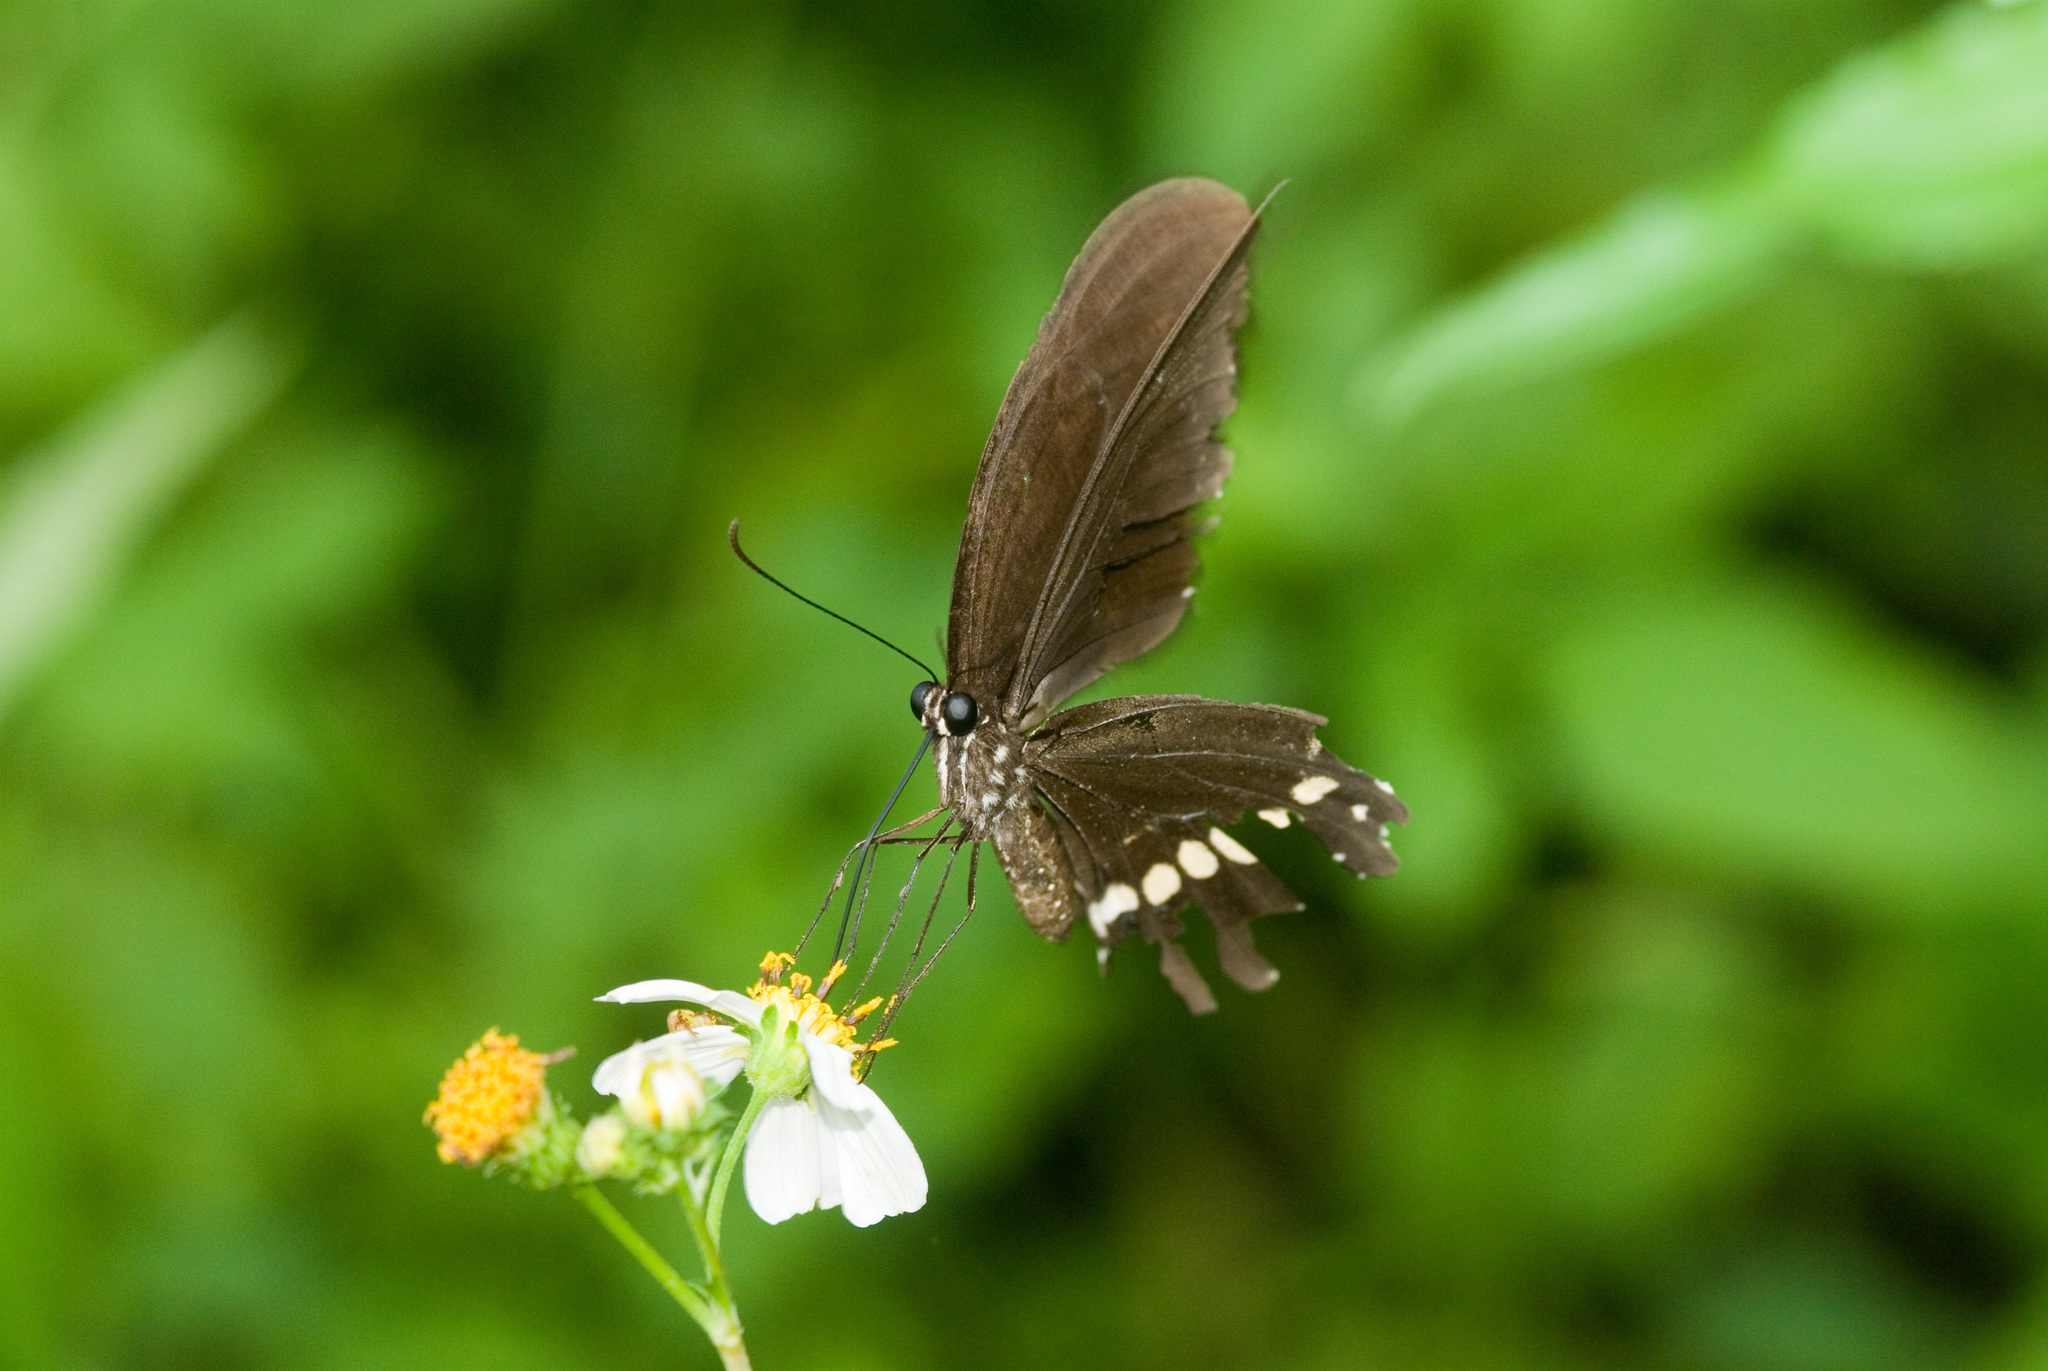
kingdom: Animalia
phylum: Arthropoda
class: Insecta
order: Lepidoptera
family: Papilionidae
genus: Papilio
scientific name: Papilio polytes
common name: Common mormon
